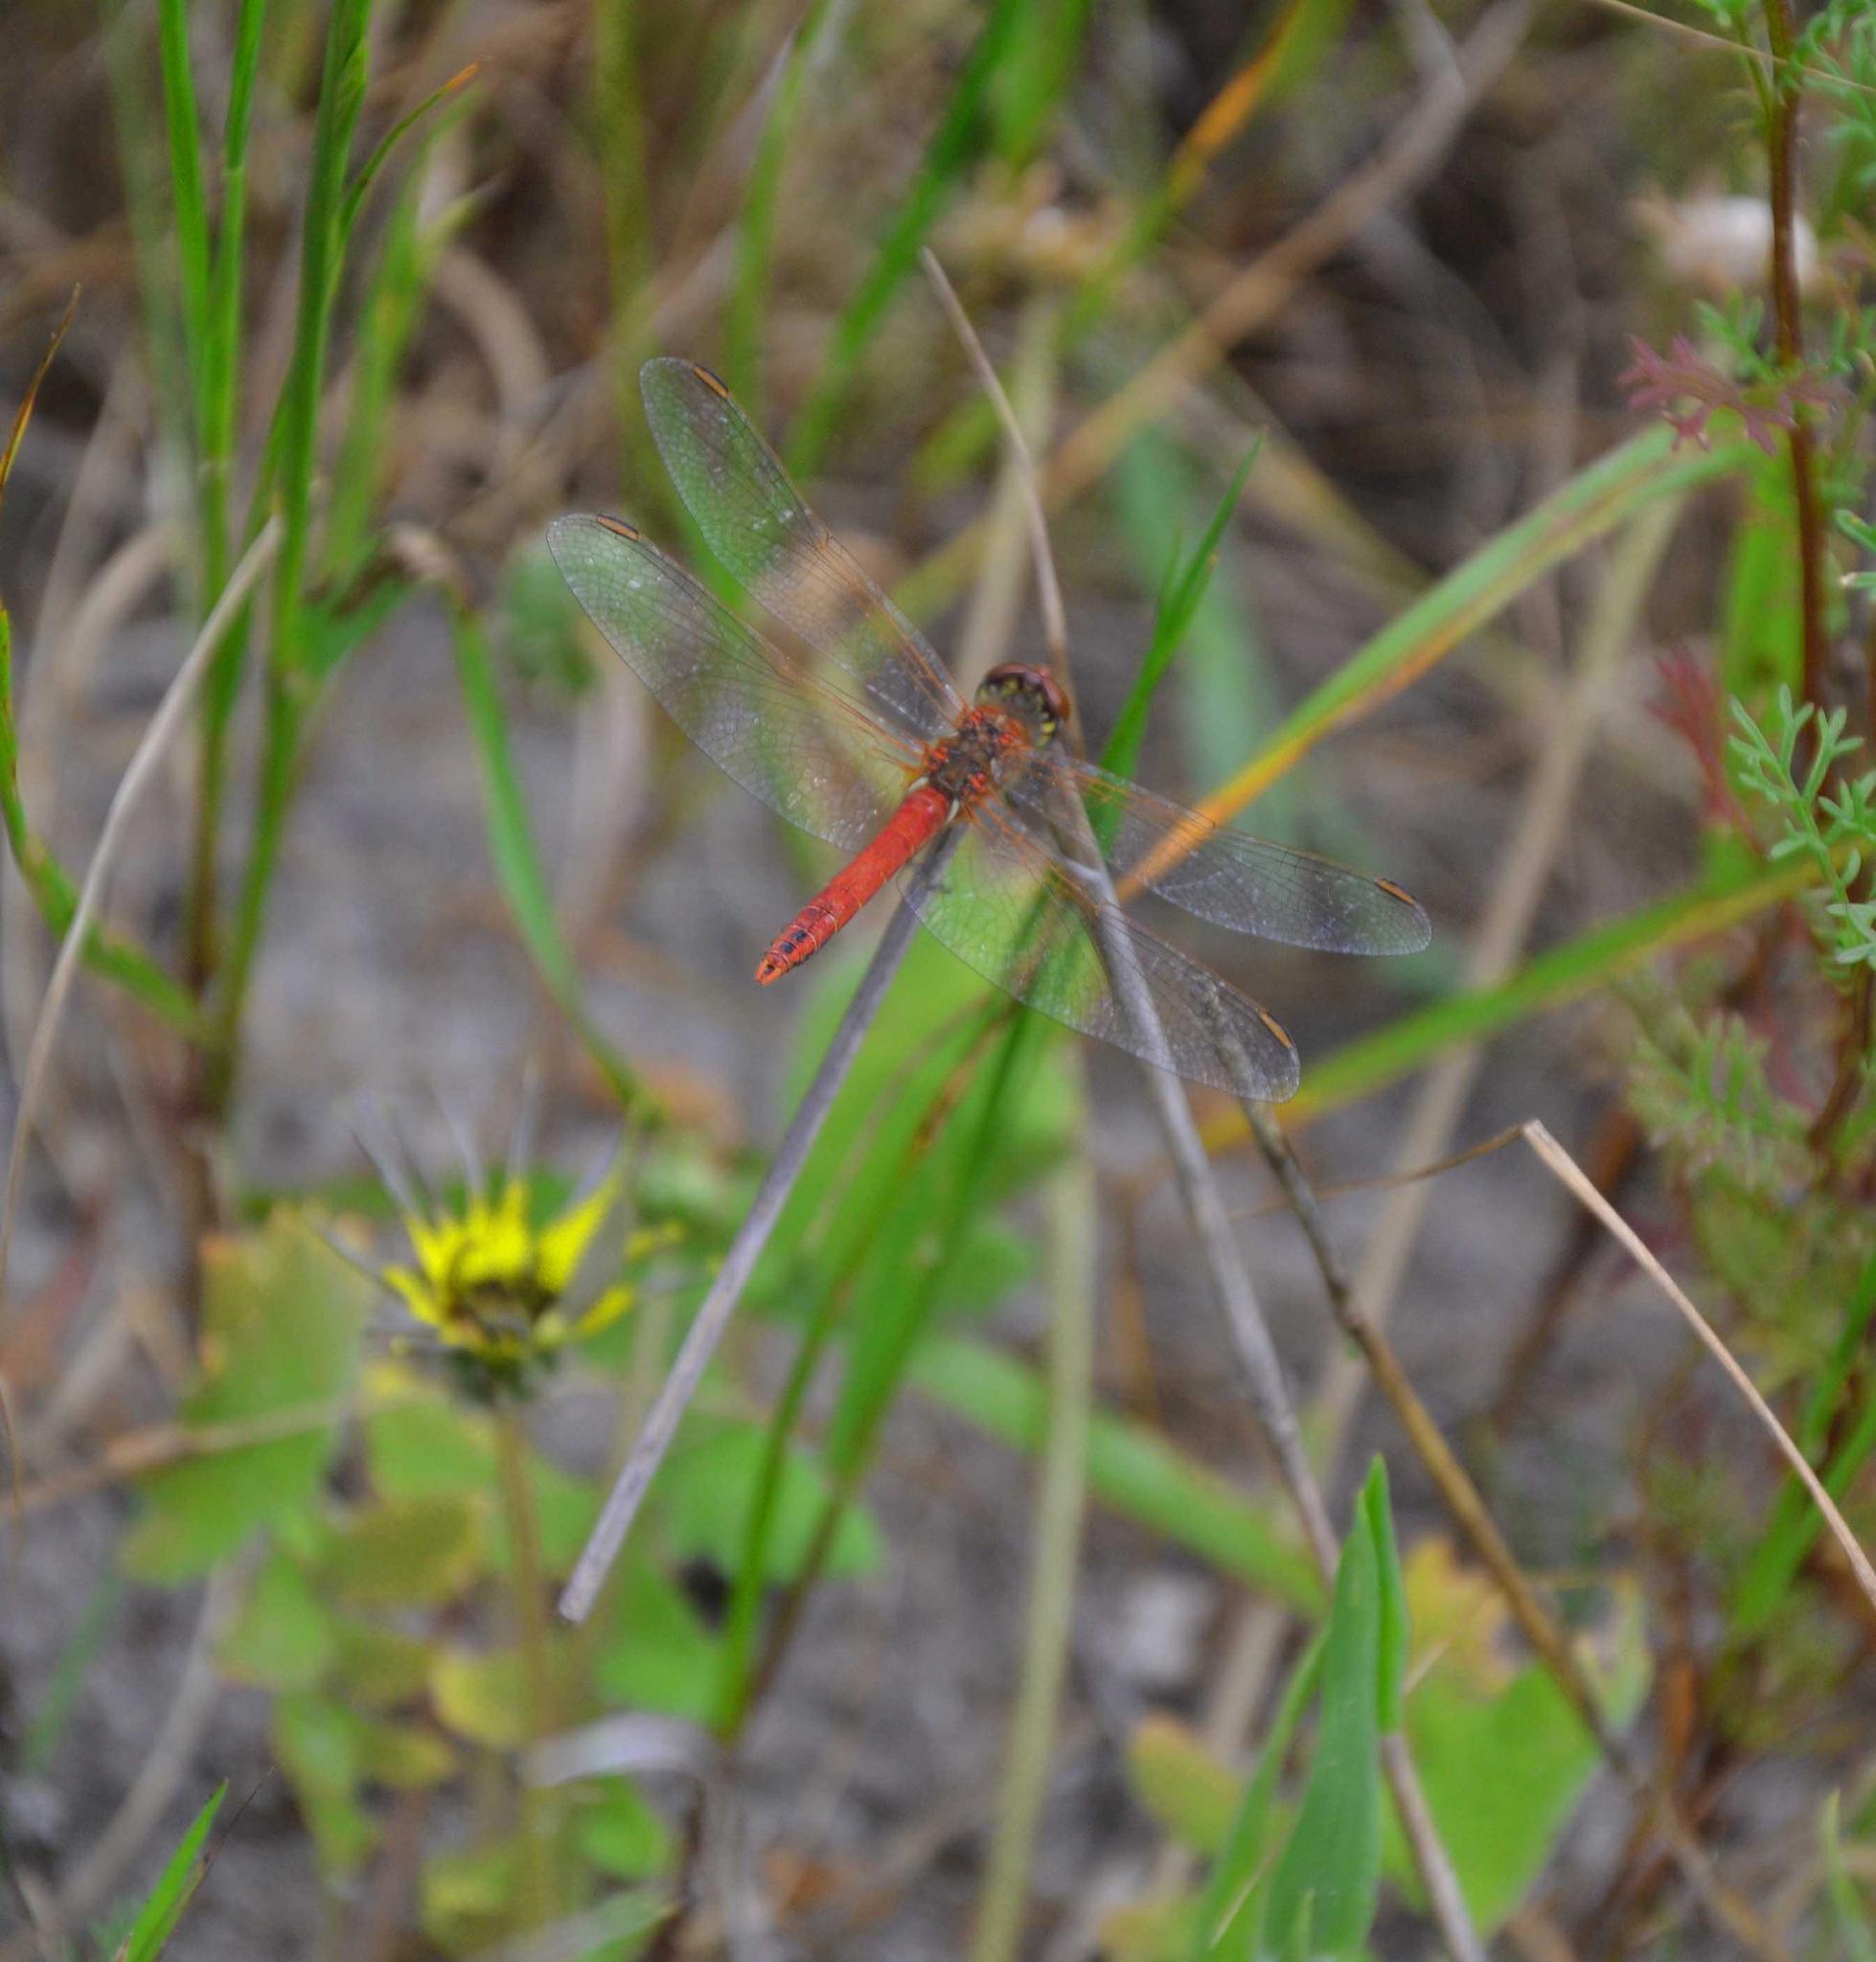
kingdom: Animalia
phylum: Arthropoda
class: Insecta
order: Odonata
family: Libellulidae
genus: Sympetrum
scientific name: Sympetrum fonscolombii
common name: Red-veined darter
